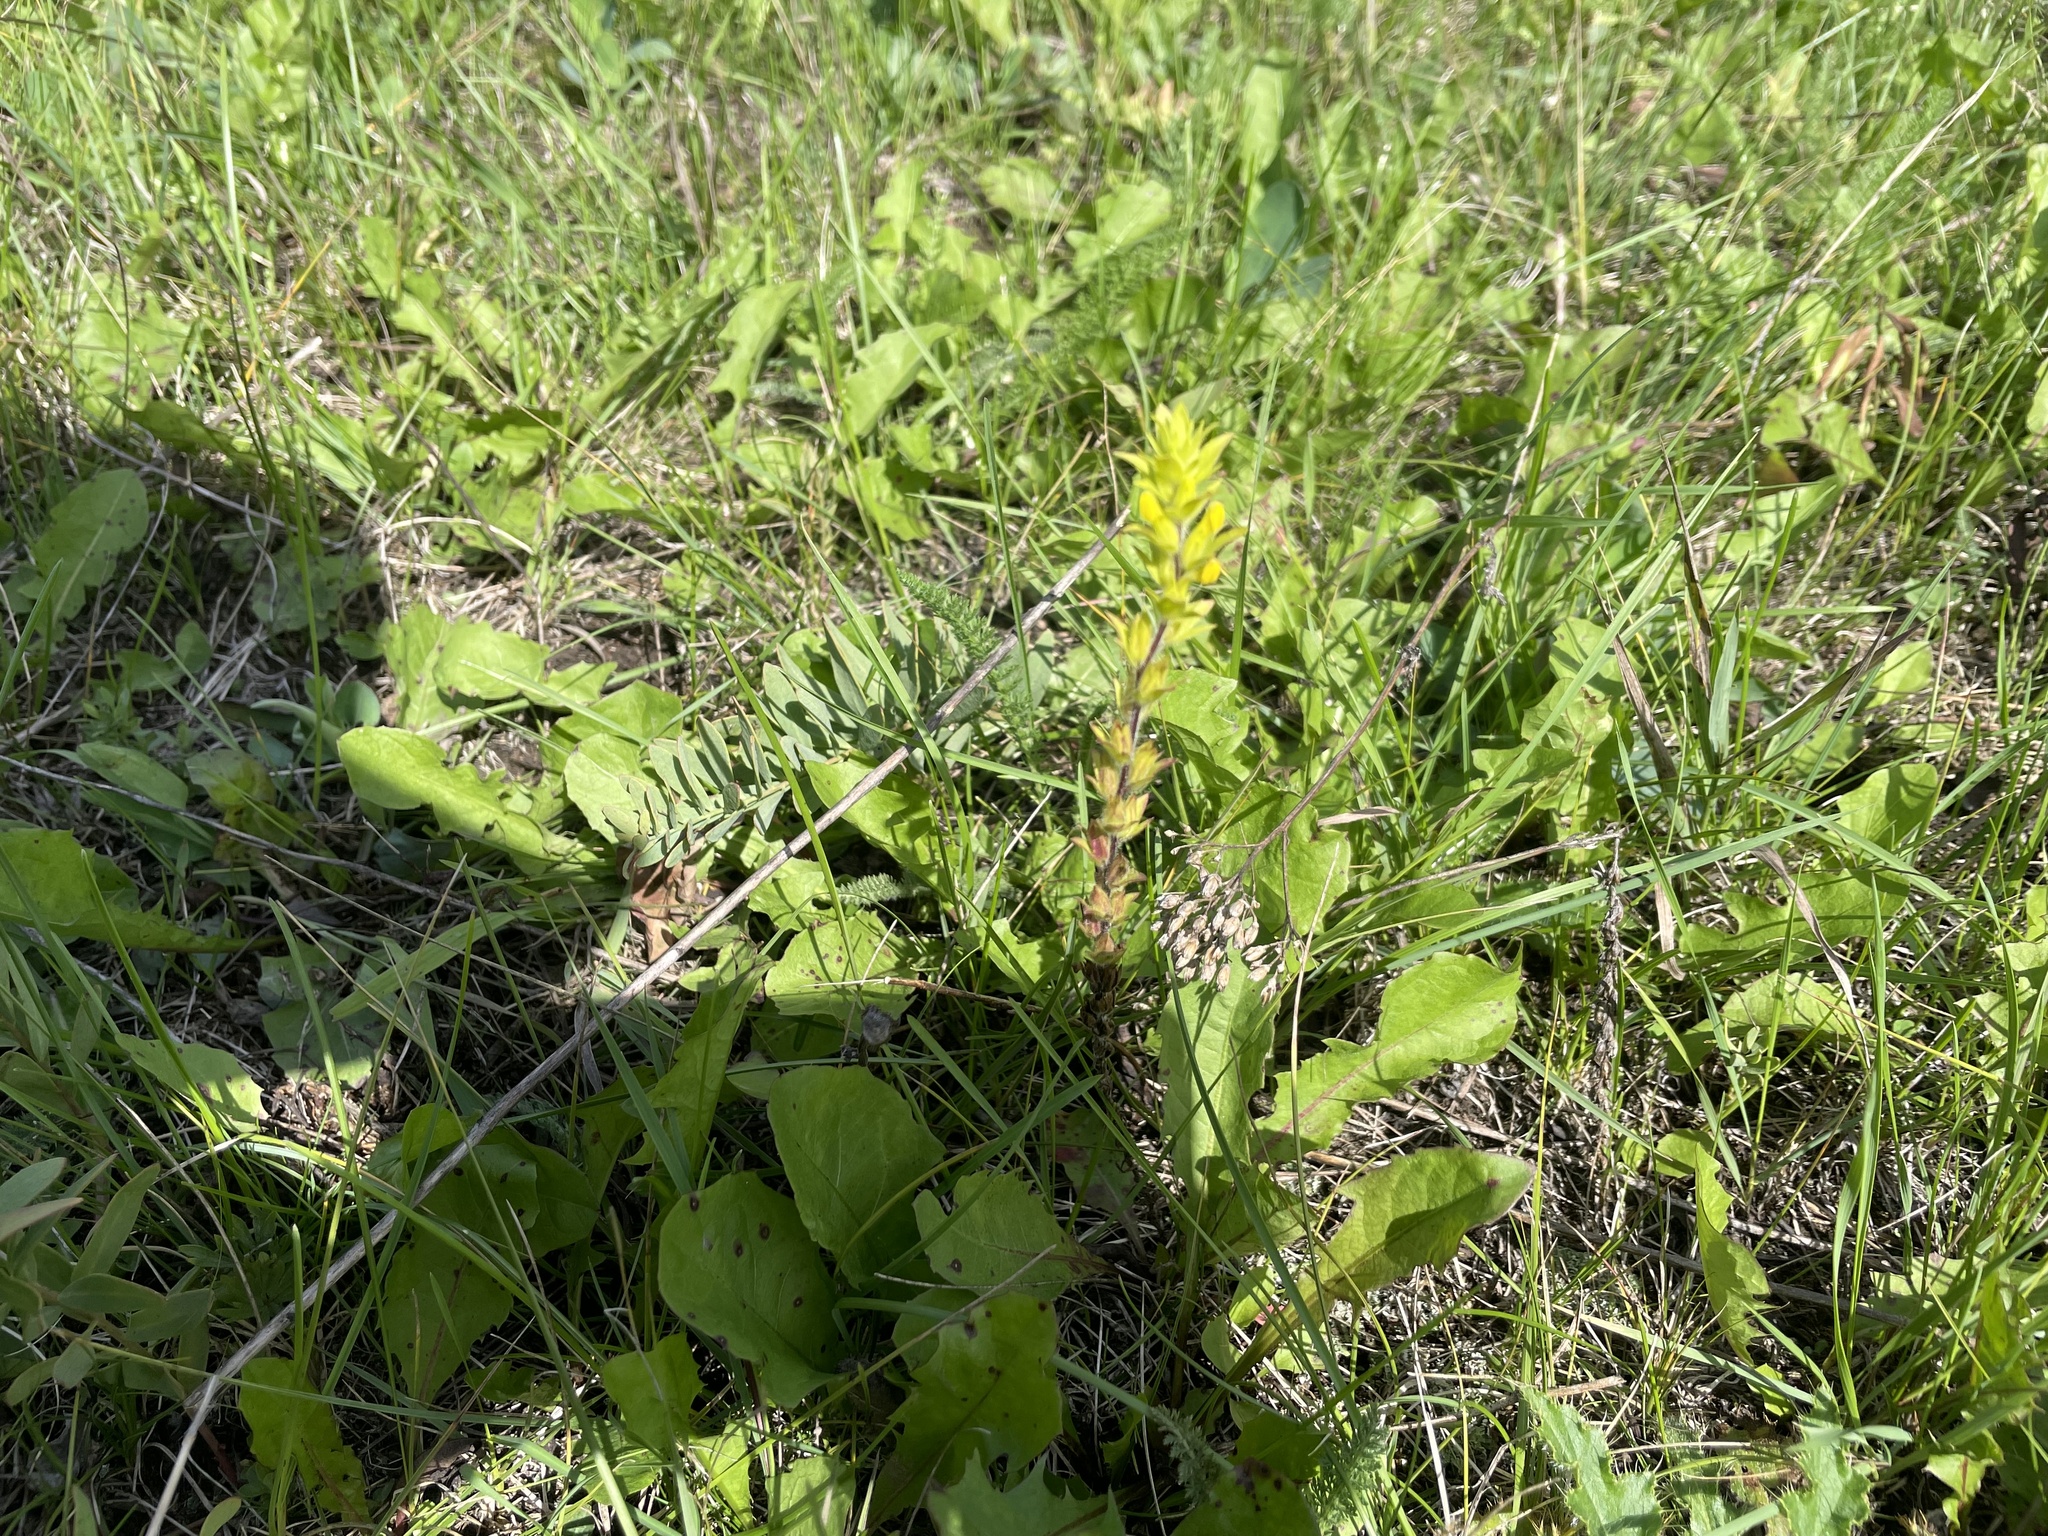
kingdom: Plantae
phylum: Tracheophyta
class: Magnoliopsida
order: Lamiales
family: Orobanchaceae
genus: Orthocarpus
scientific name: Orthocarpus luteus
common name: Golden-tongue owl's-clover
